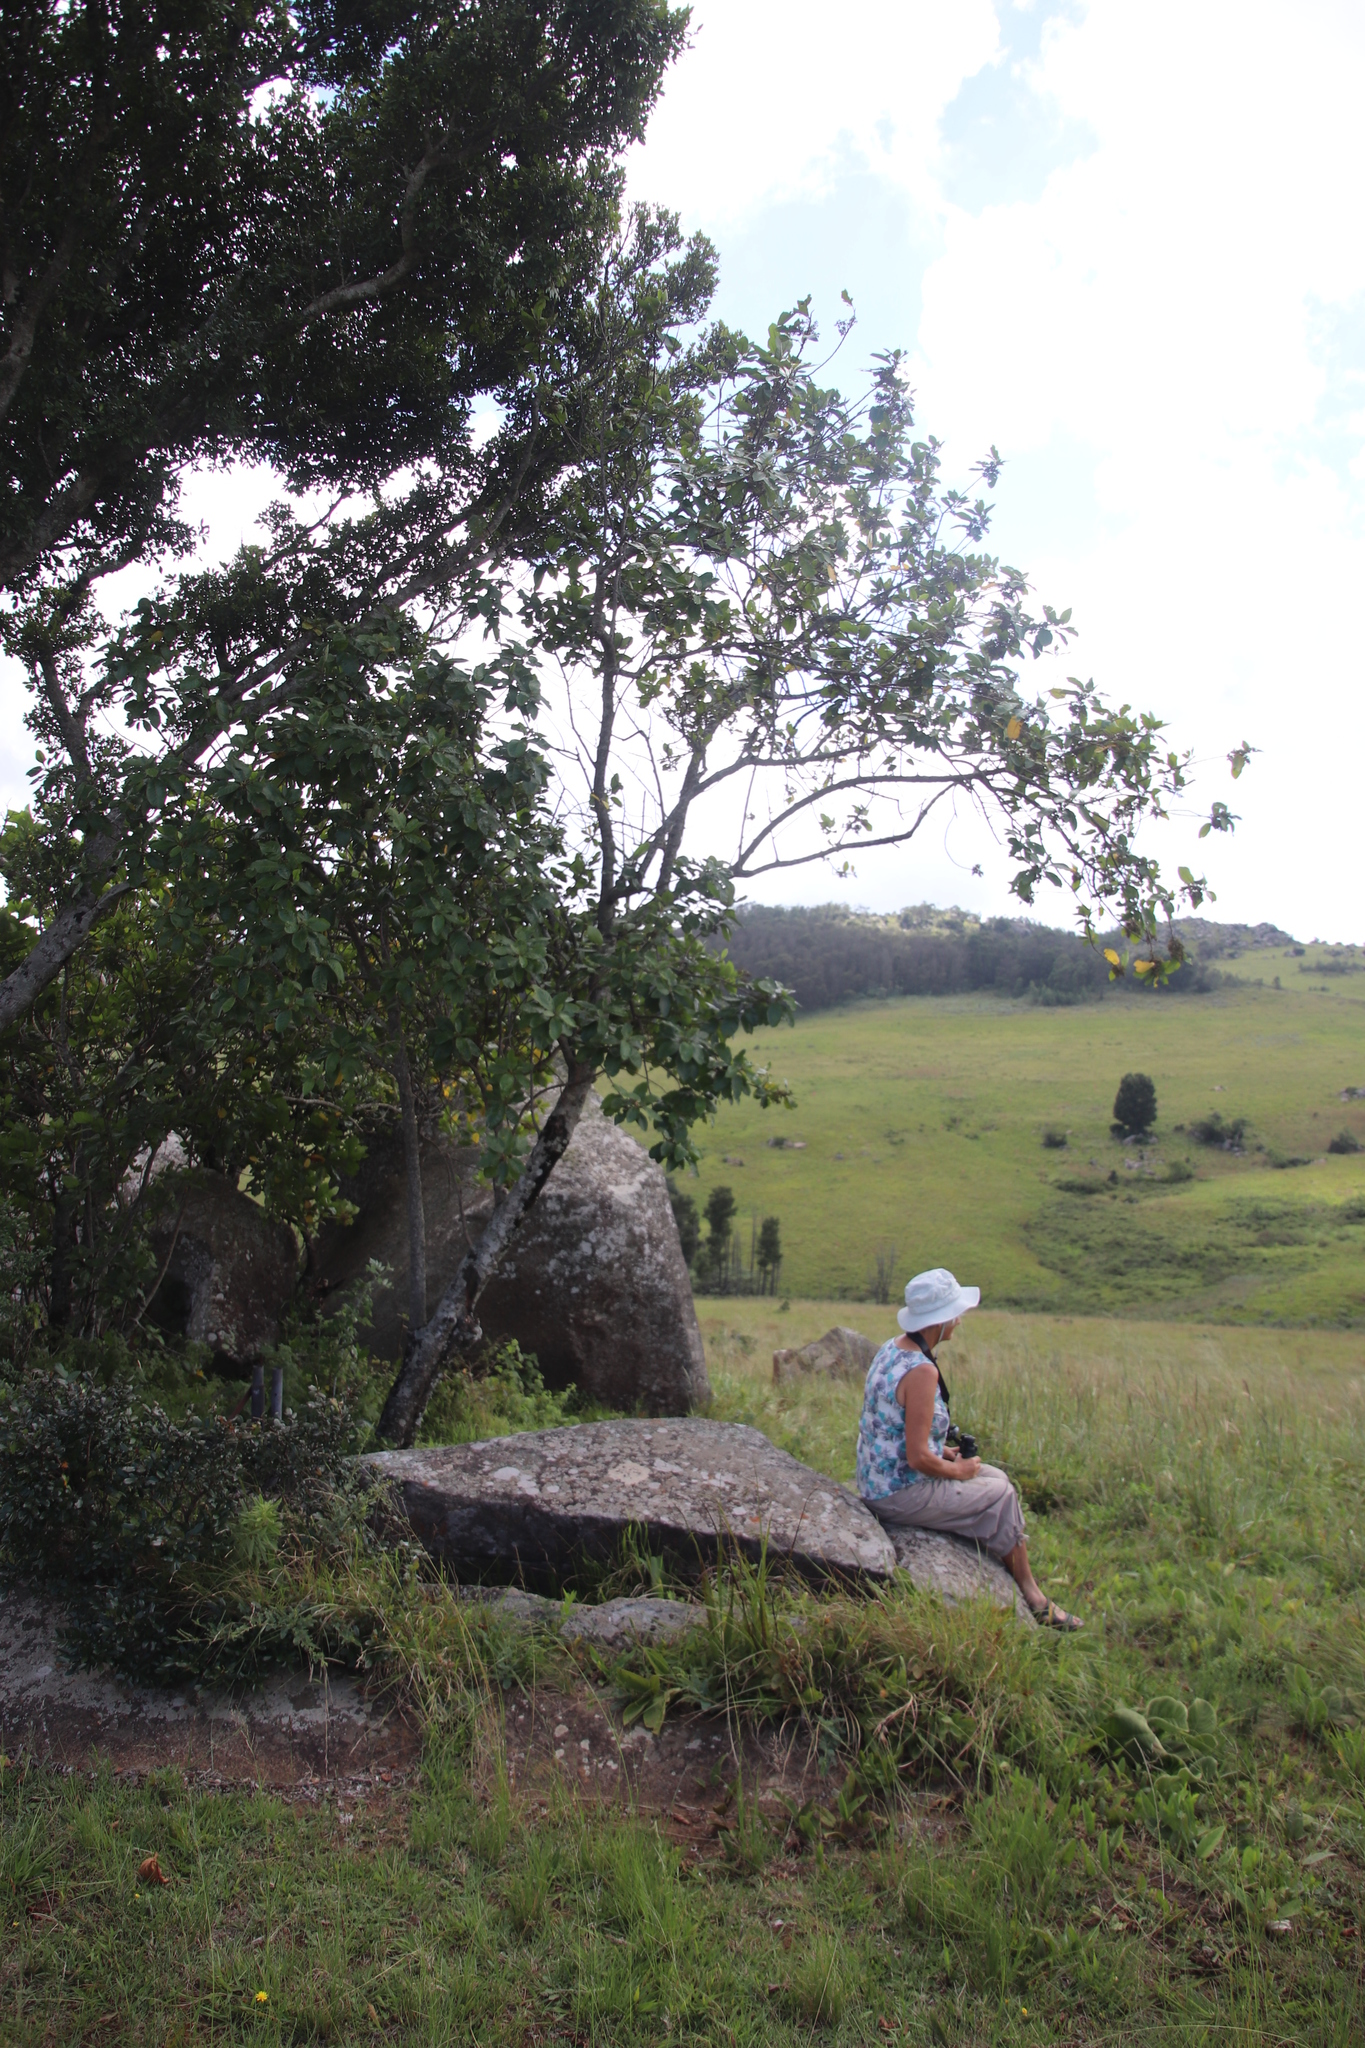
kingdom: Plantae
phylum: Tracheophyta
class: Magnoliopsida
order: Ericales
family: Primulaceae
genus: Maesa
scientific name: Maesa lanceolata
